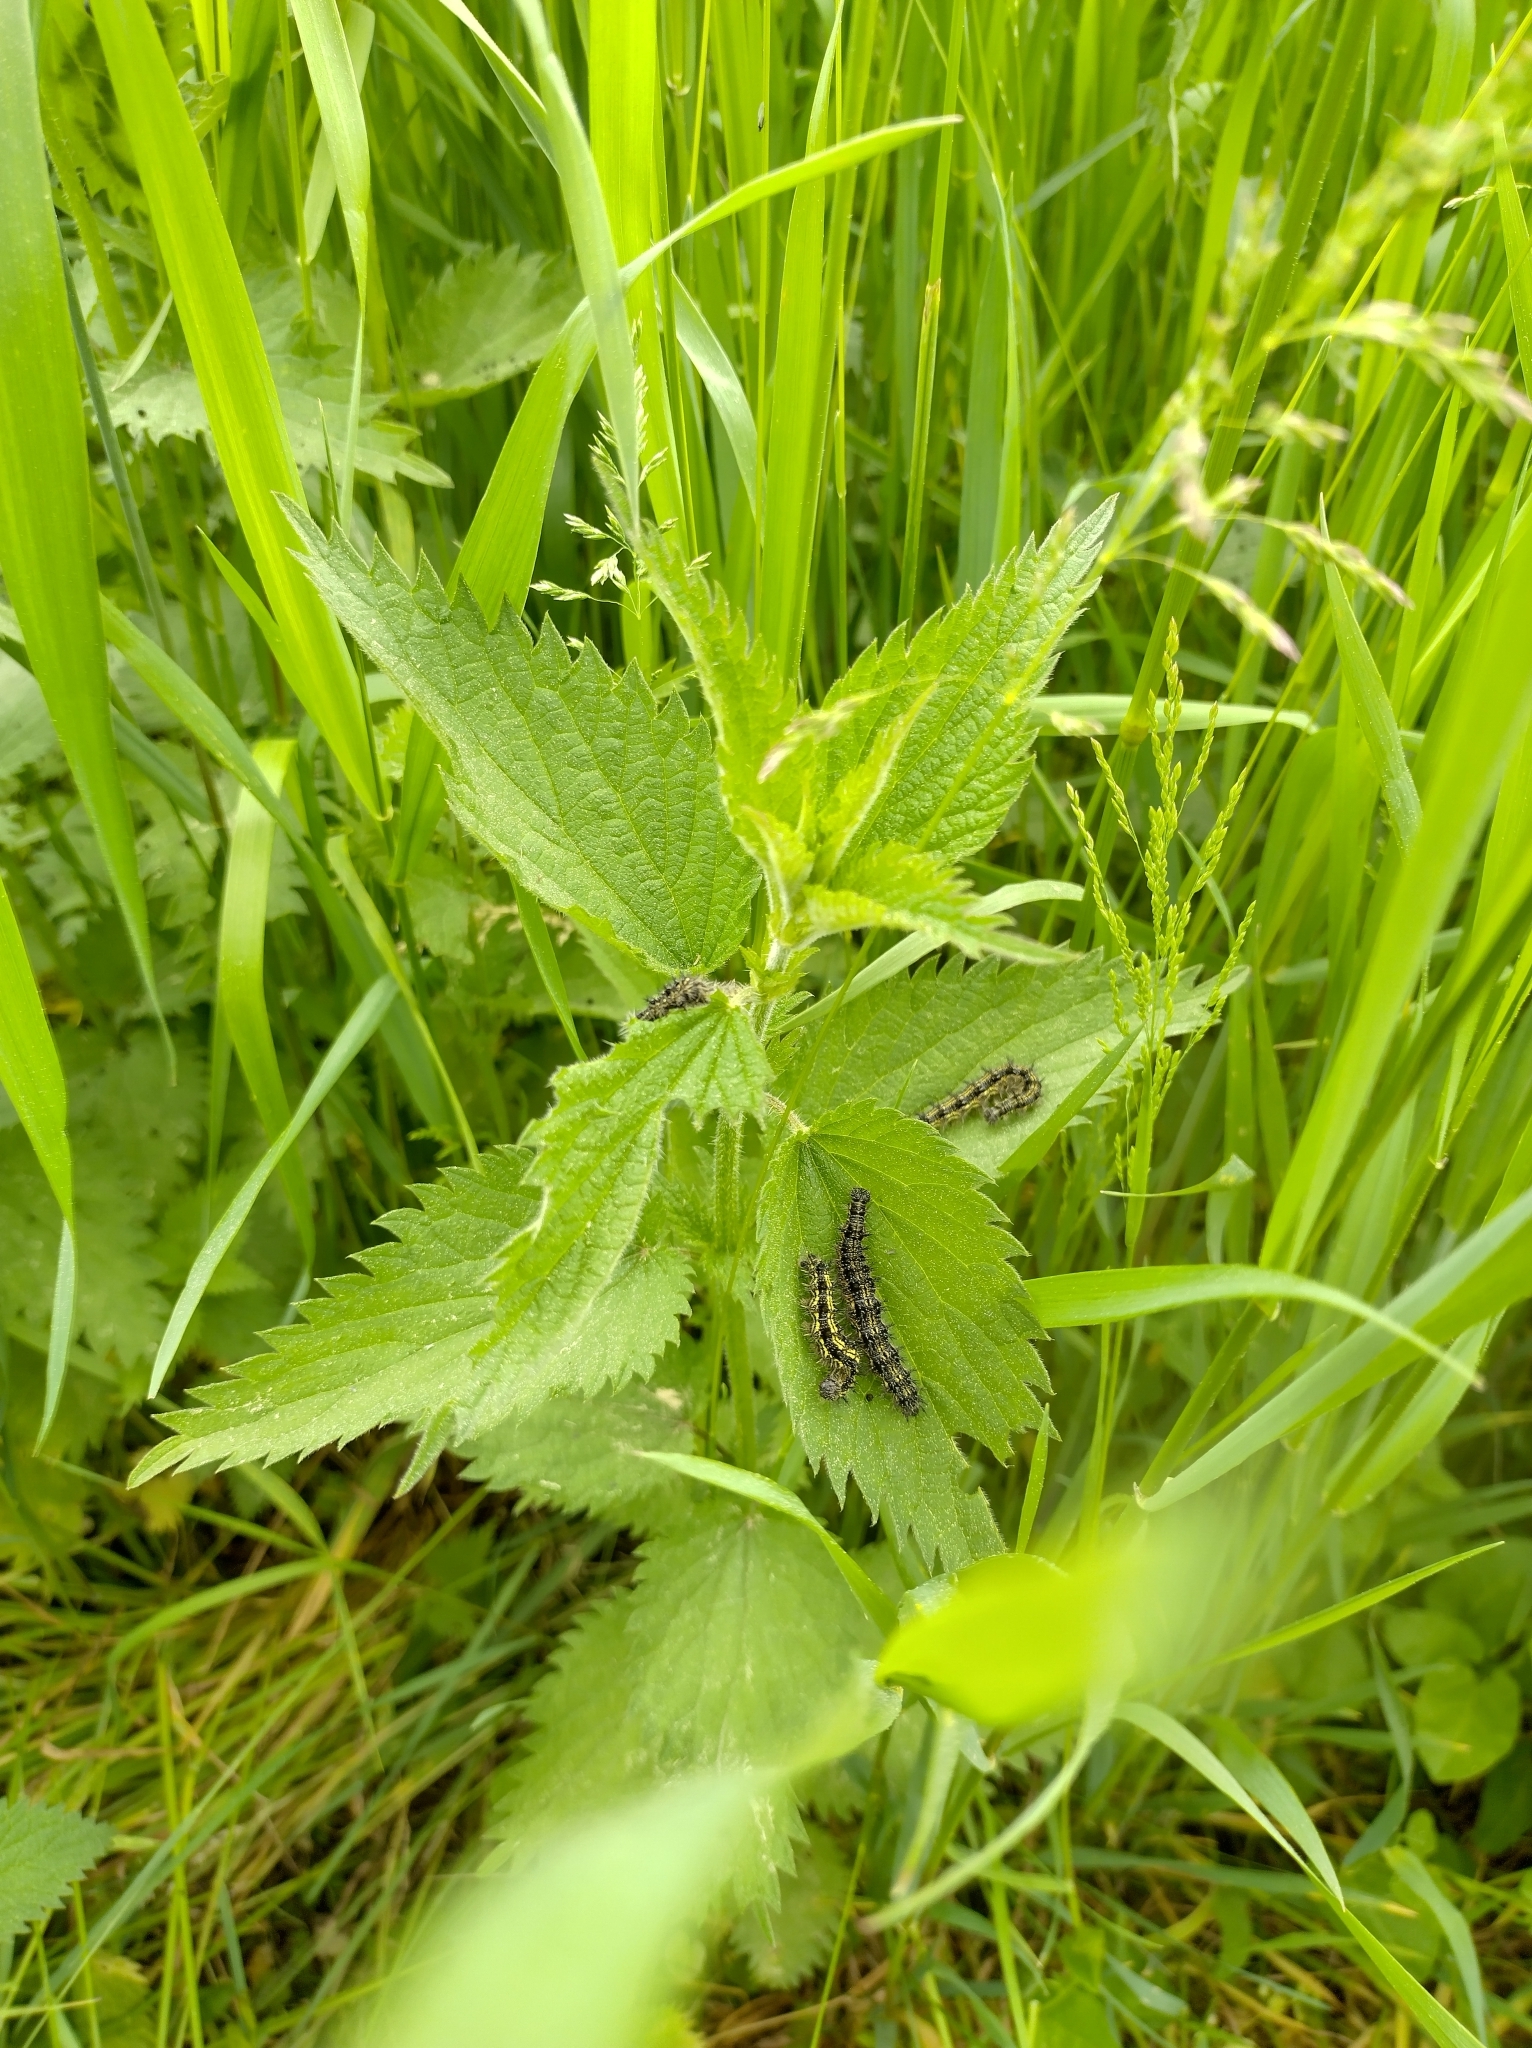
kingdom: Animalia
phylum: Arthropoda
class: Insecta
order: Lepidoptera
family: Nymphalidae
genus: Aglais
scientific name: Aglais urticae
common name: Small tortoiseshell
